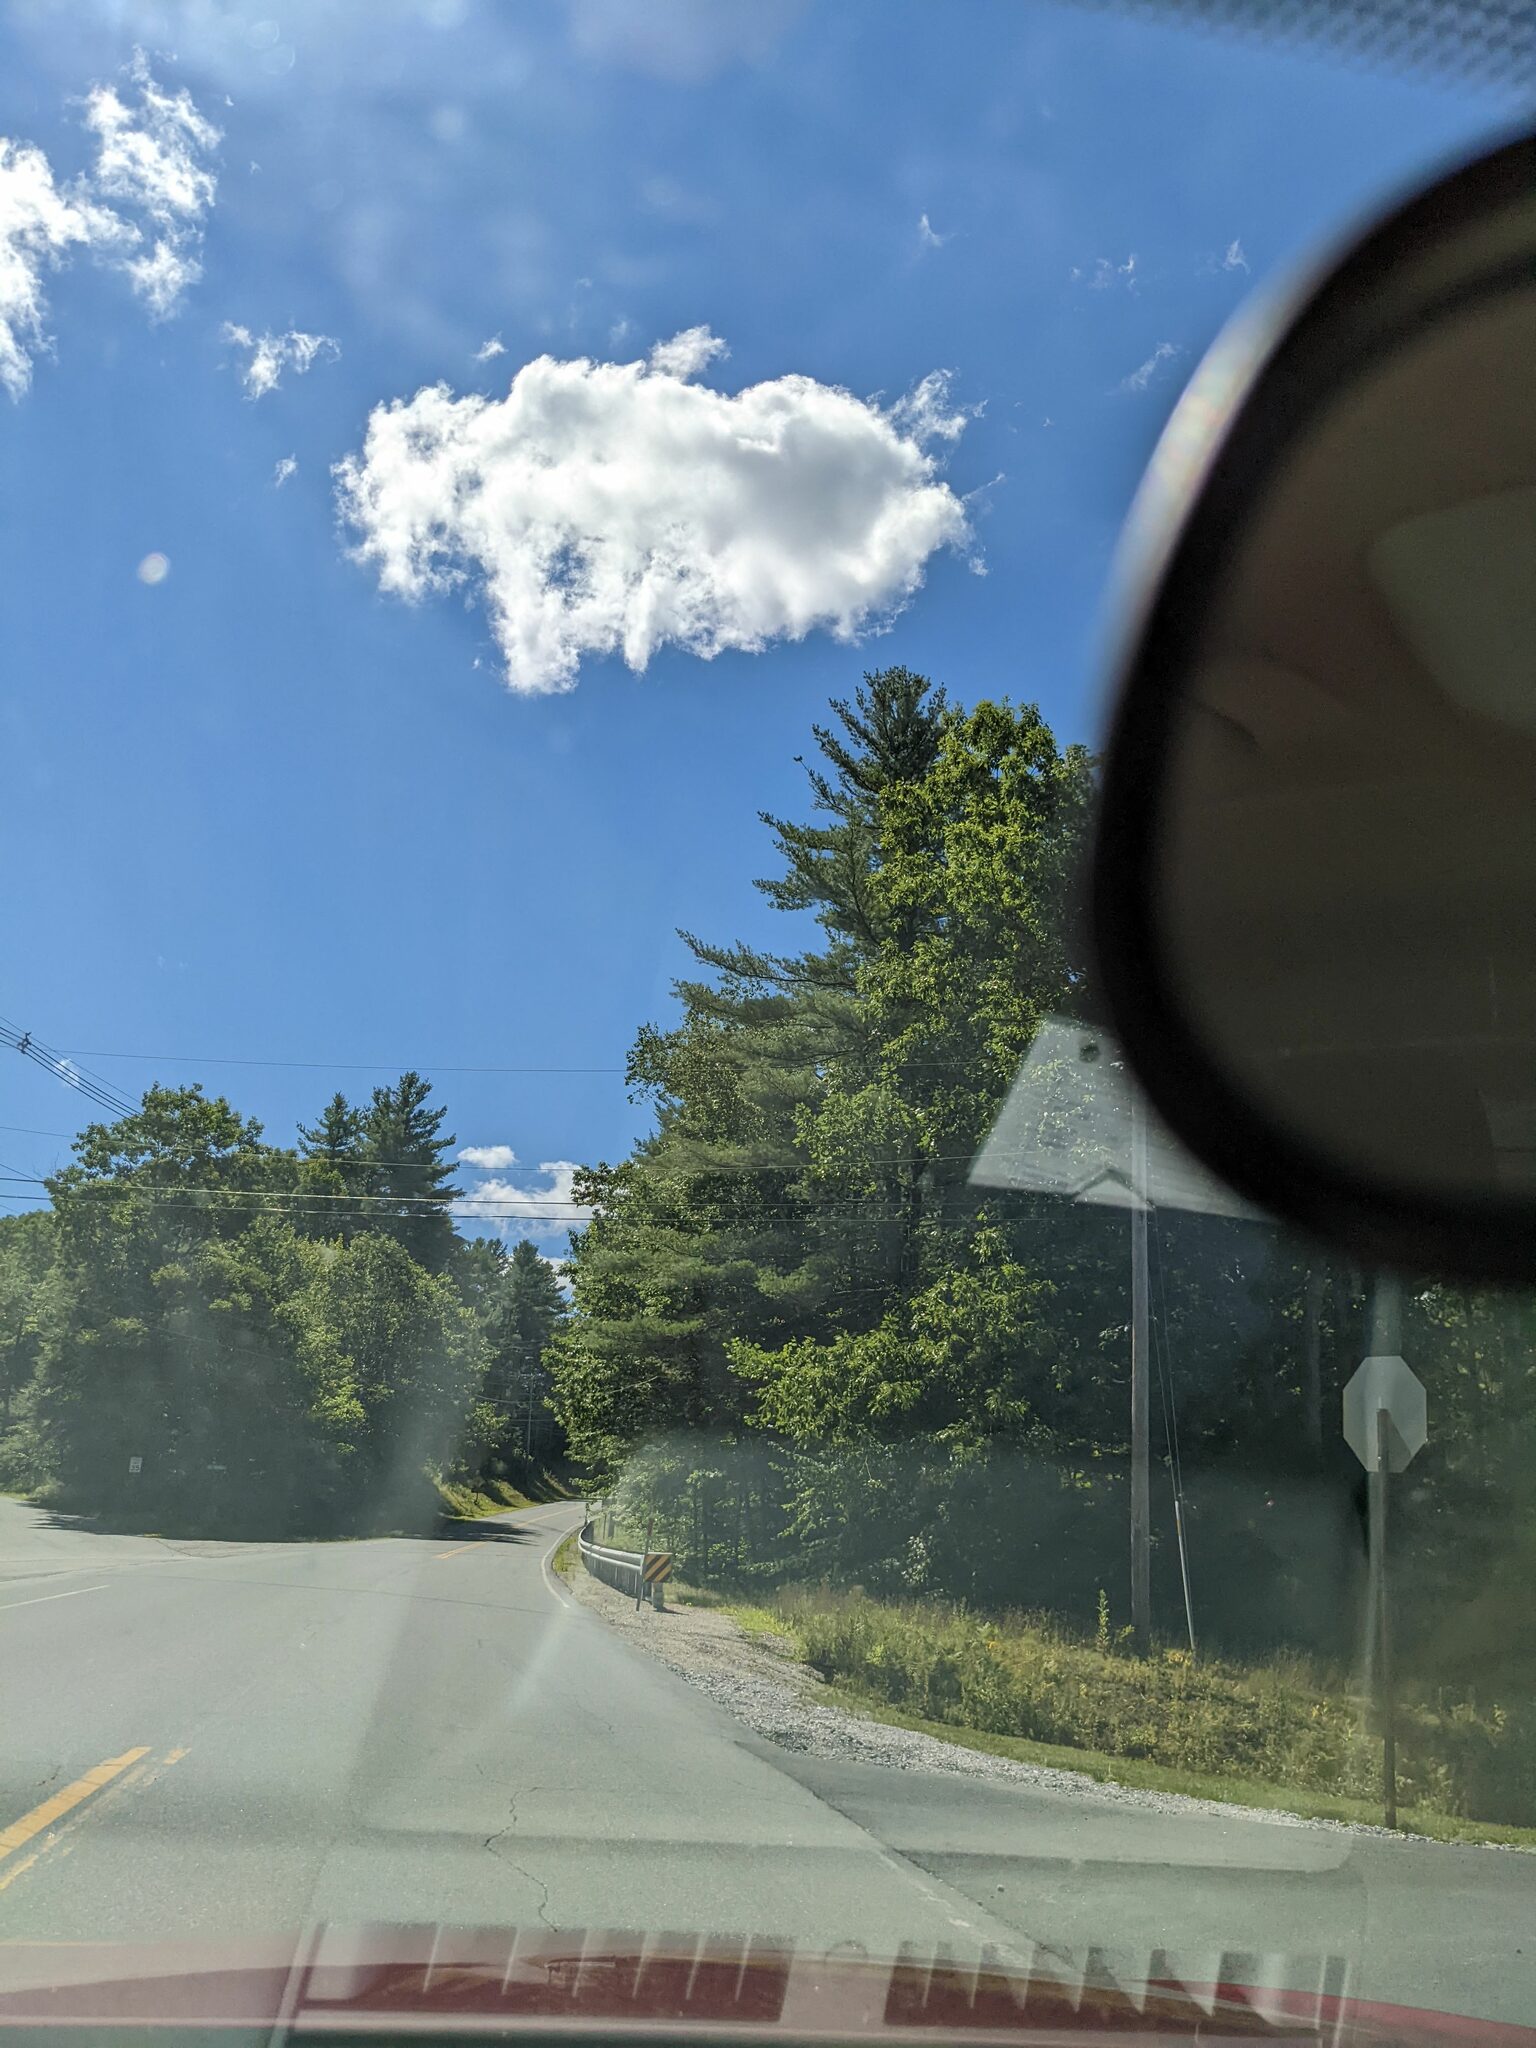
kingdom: Plantae
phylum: Tracheophyta
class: Pinopsida
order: Pinales
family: Pinaceae
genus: Pinus
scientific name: Pinus strobus
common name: Weymouth pine
